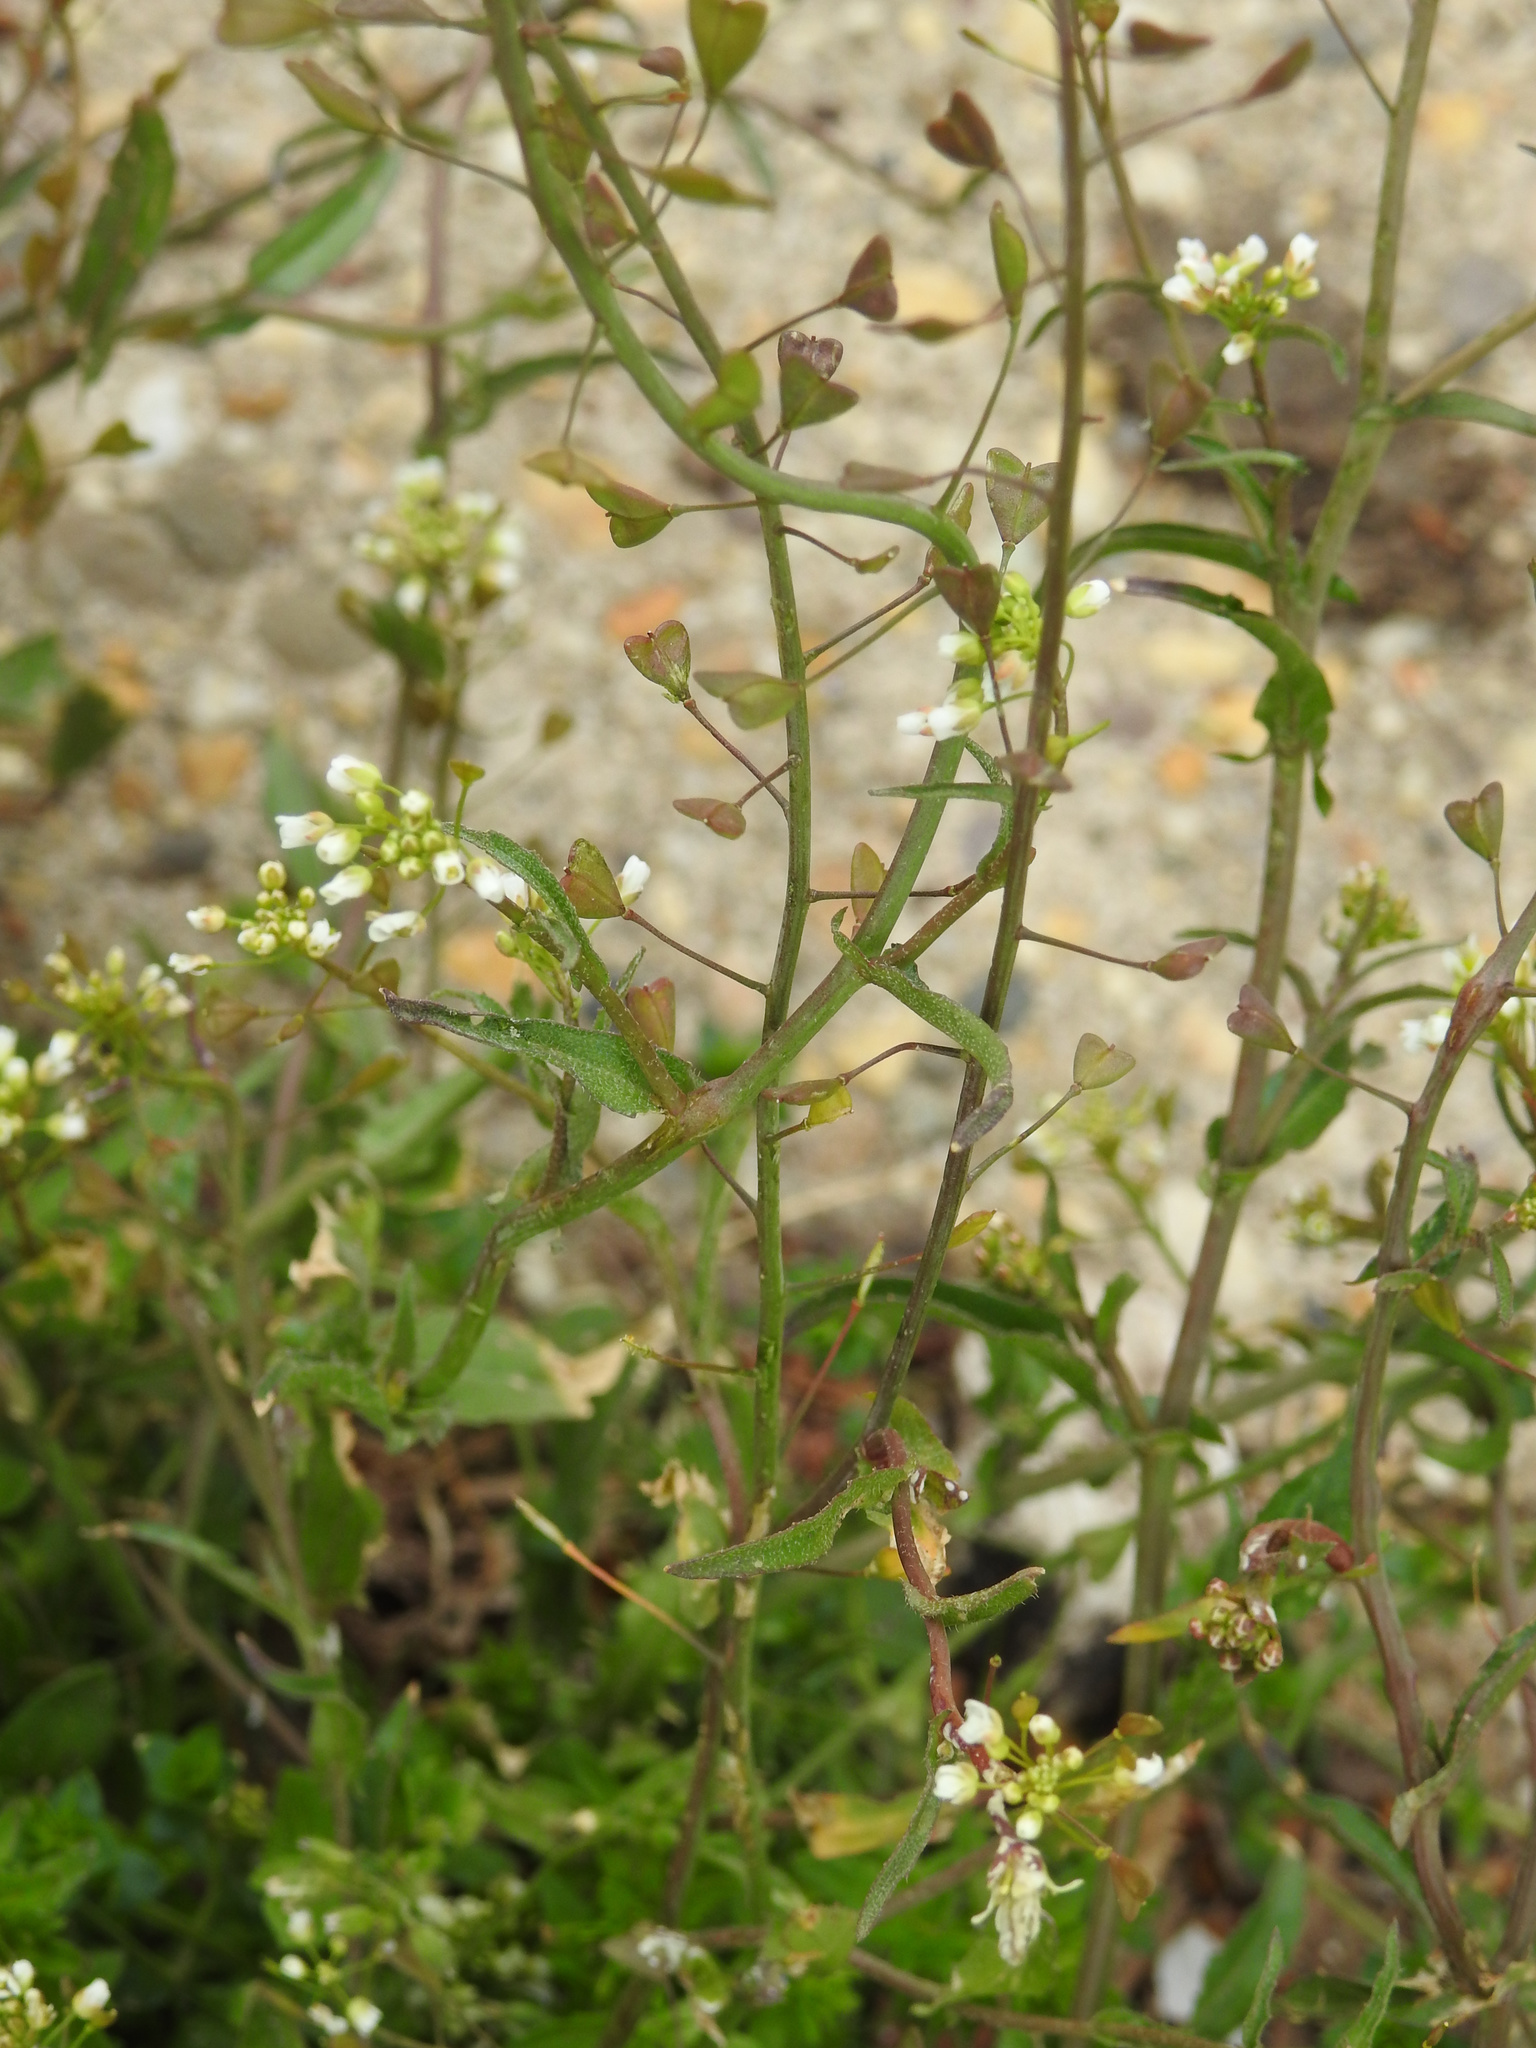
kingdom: Plantae
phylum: Tracheophyta
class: Magnoliopsida
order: Brassicales
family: Brassicaceae
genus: Capsella
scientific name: Capsella bursa-pastoris
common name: Shepherd's purse
